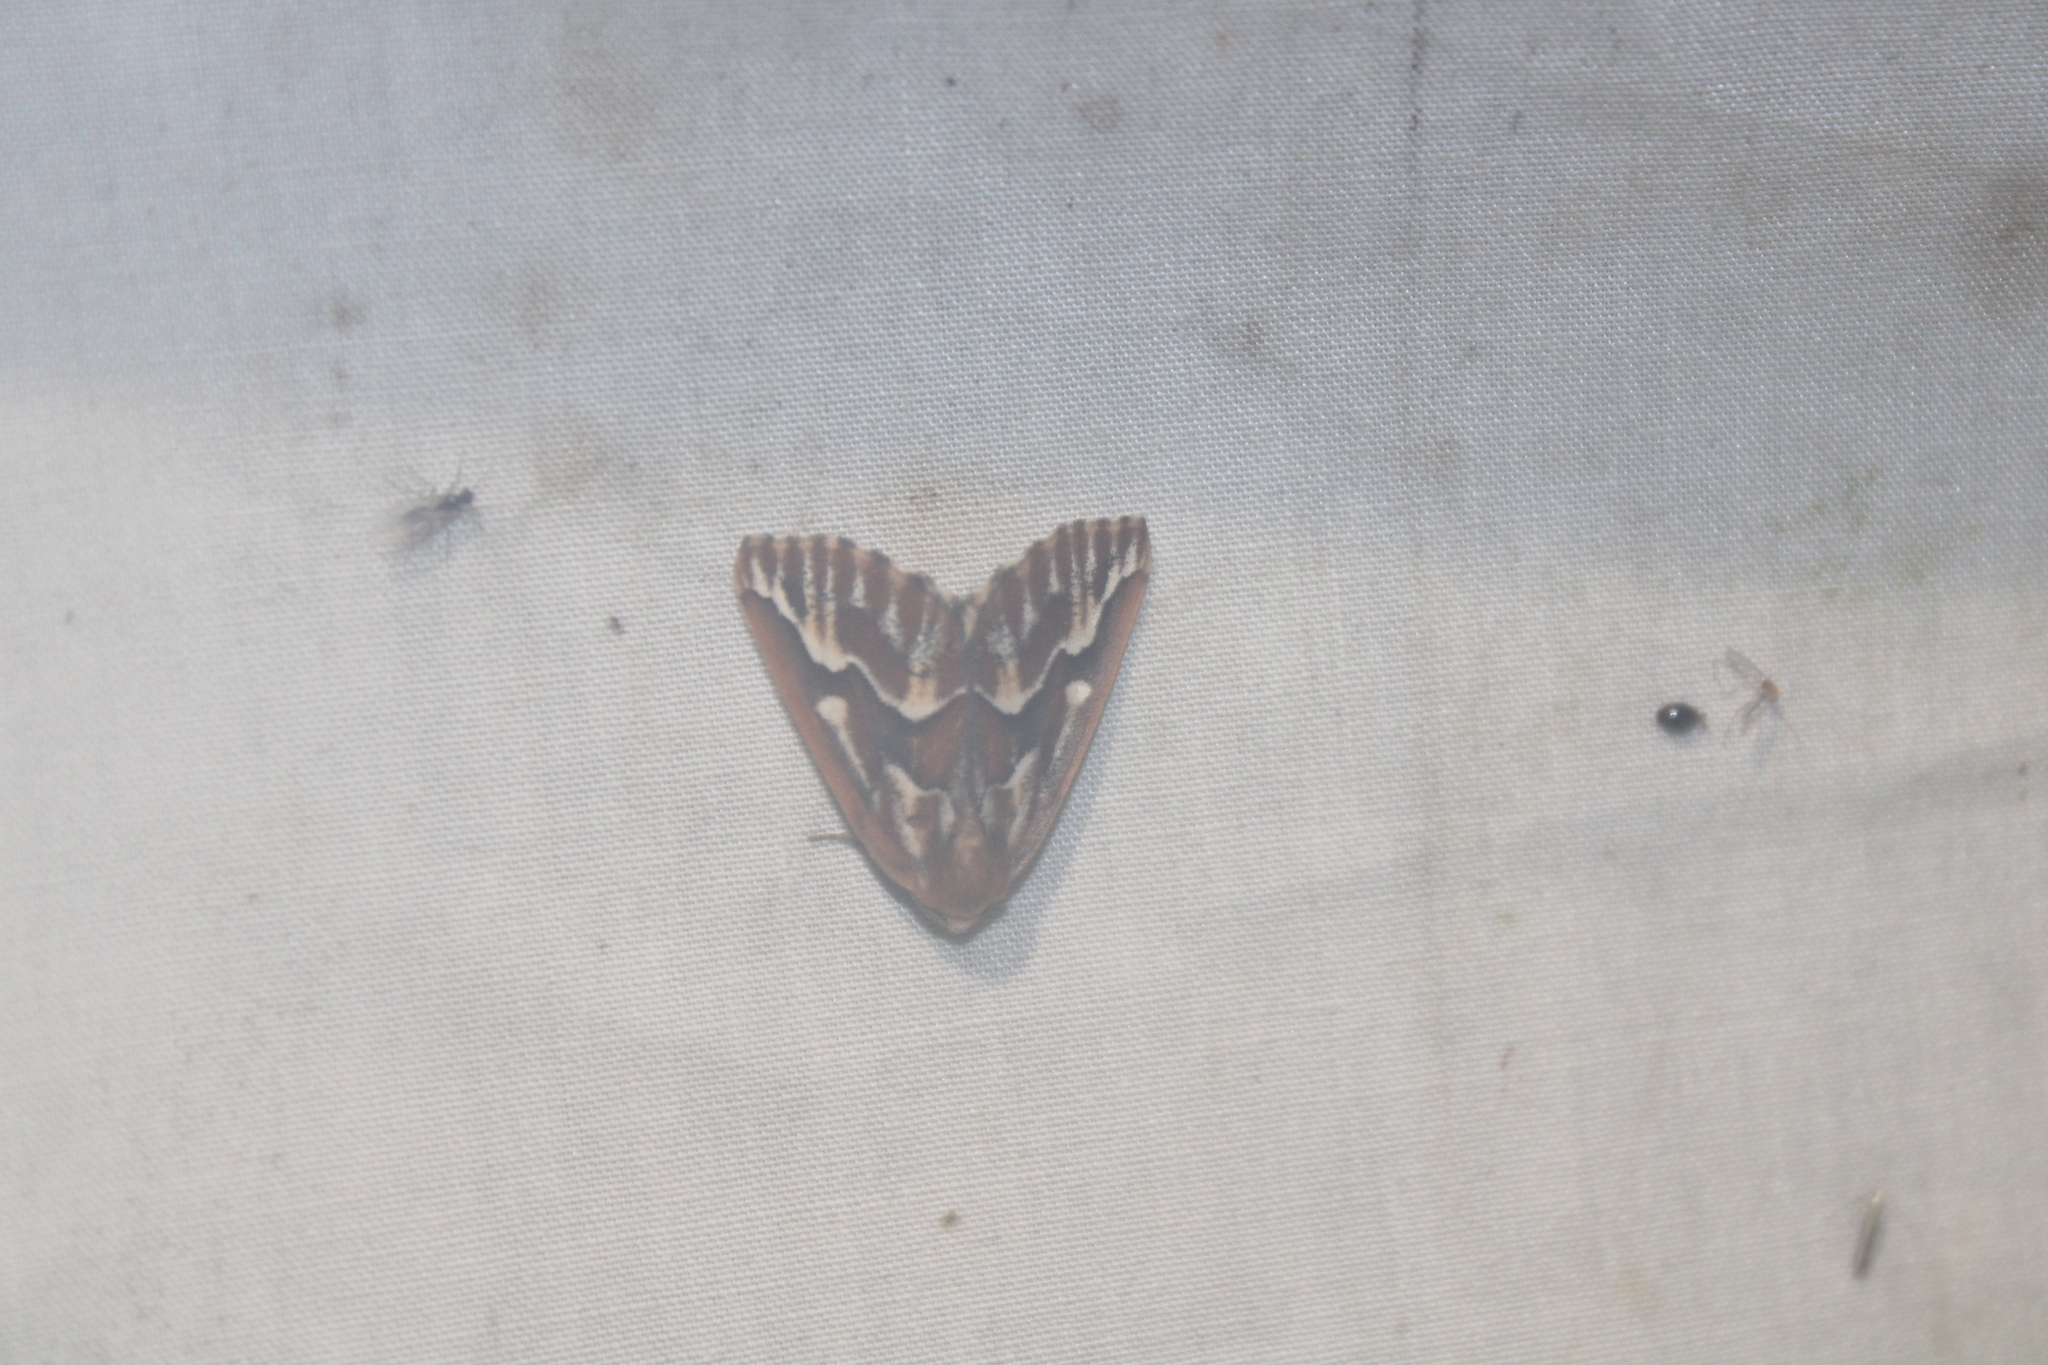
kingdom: Animalia
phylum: Arthropoda
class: Insecta
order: Lepidoptera
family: Geometridae
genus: Caripeta
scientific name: Caripeta piniata
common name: Northern pine looper moth
